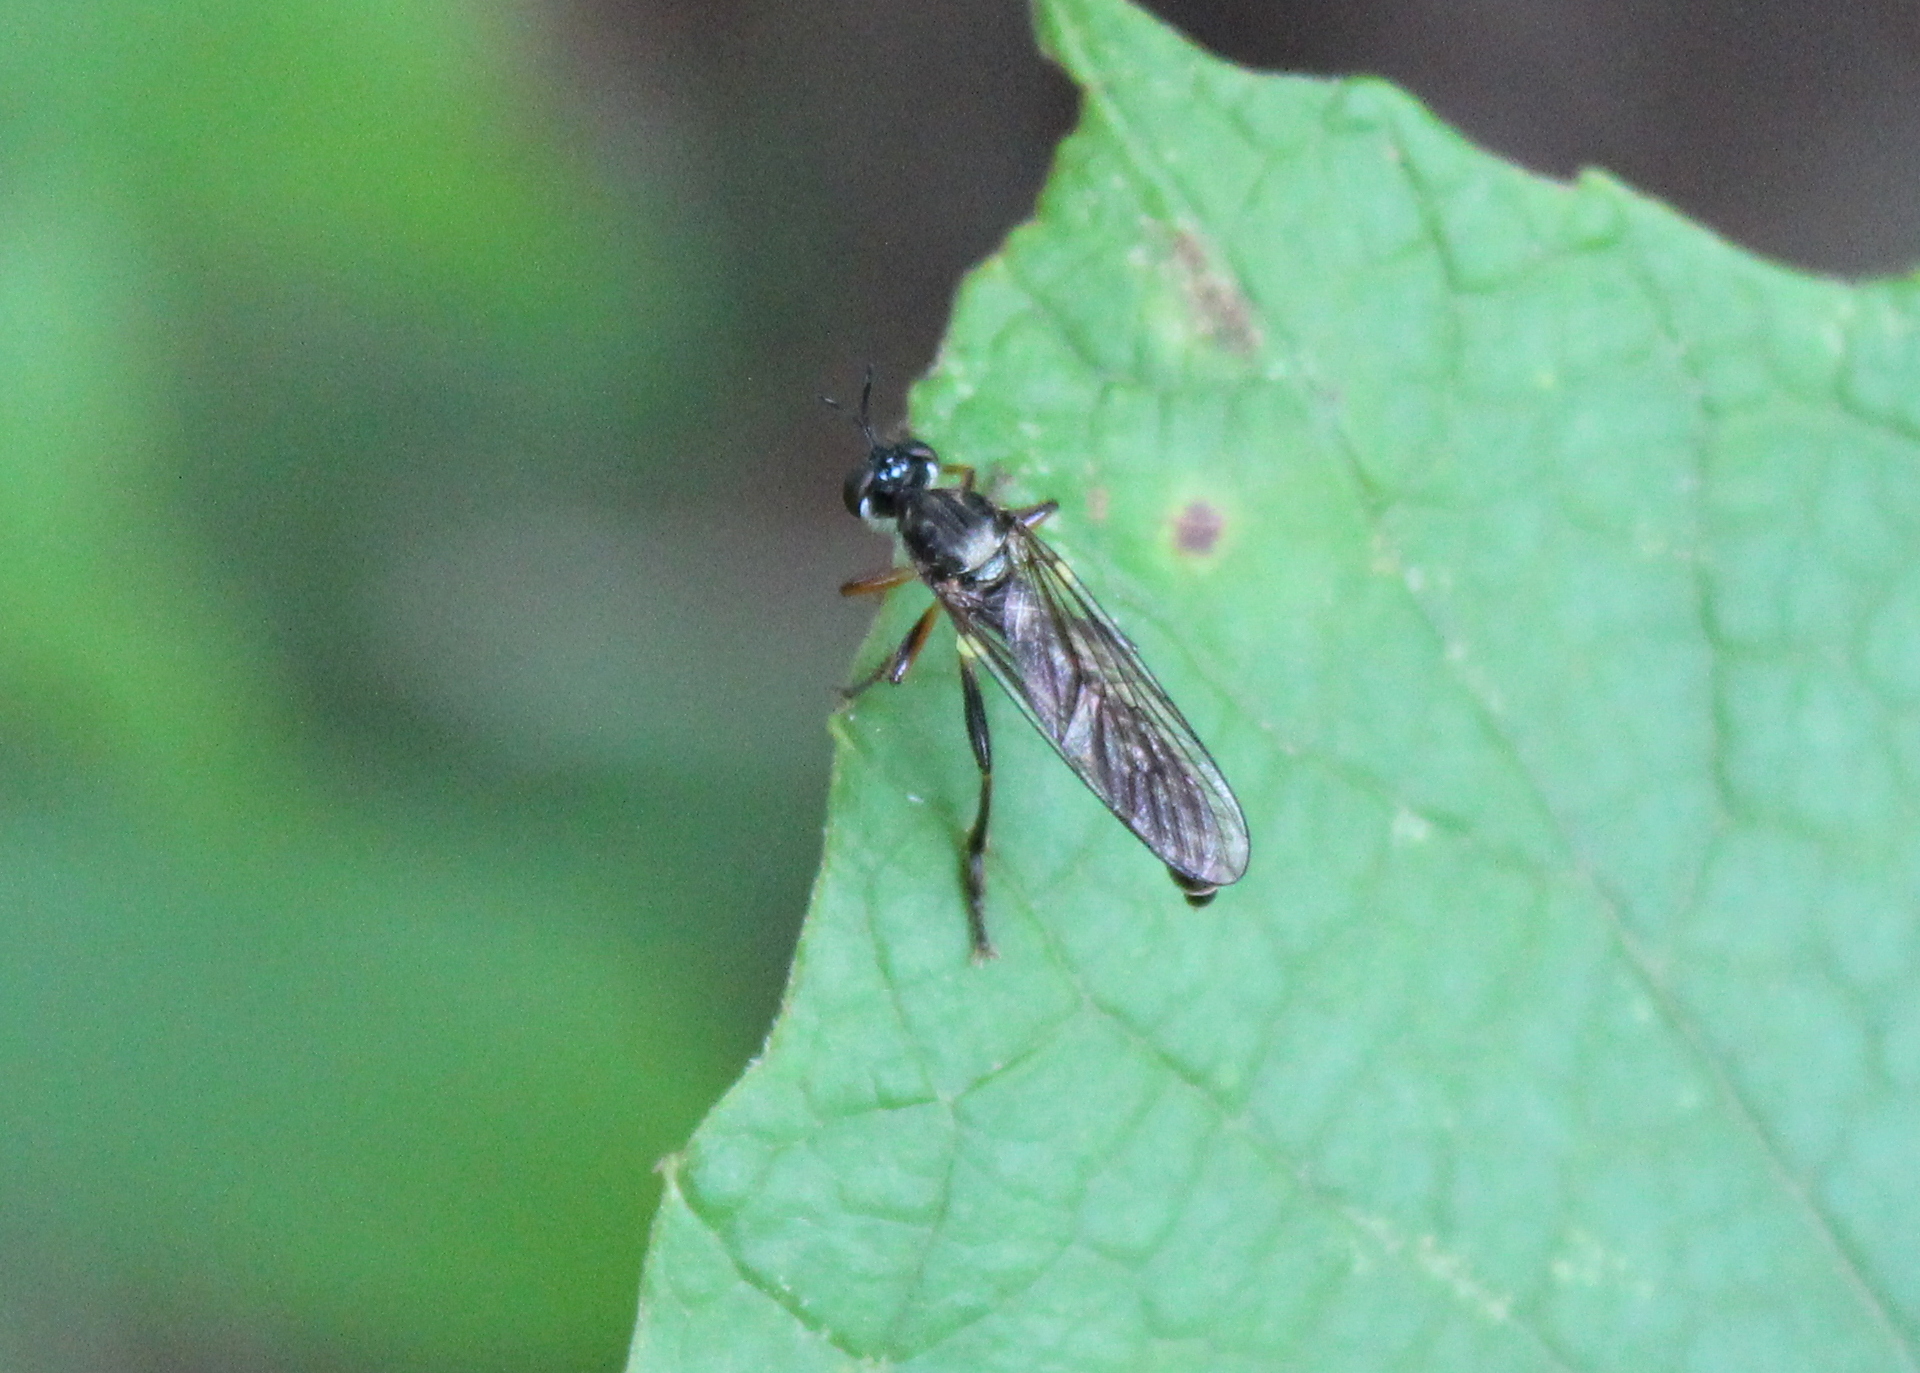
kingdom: Animalia
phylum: Arthropoda
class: Insecta
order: Diptera
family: Asilidae
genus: Dioctria
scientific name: Dioctria hyalipennis
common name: Stripe-legged robberfly
